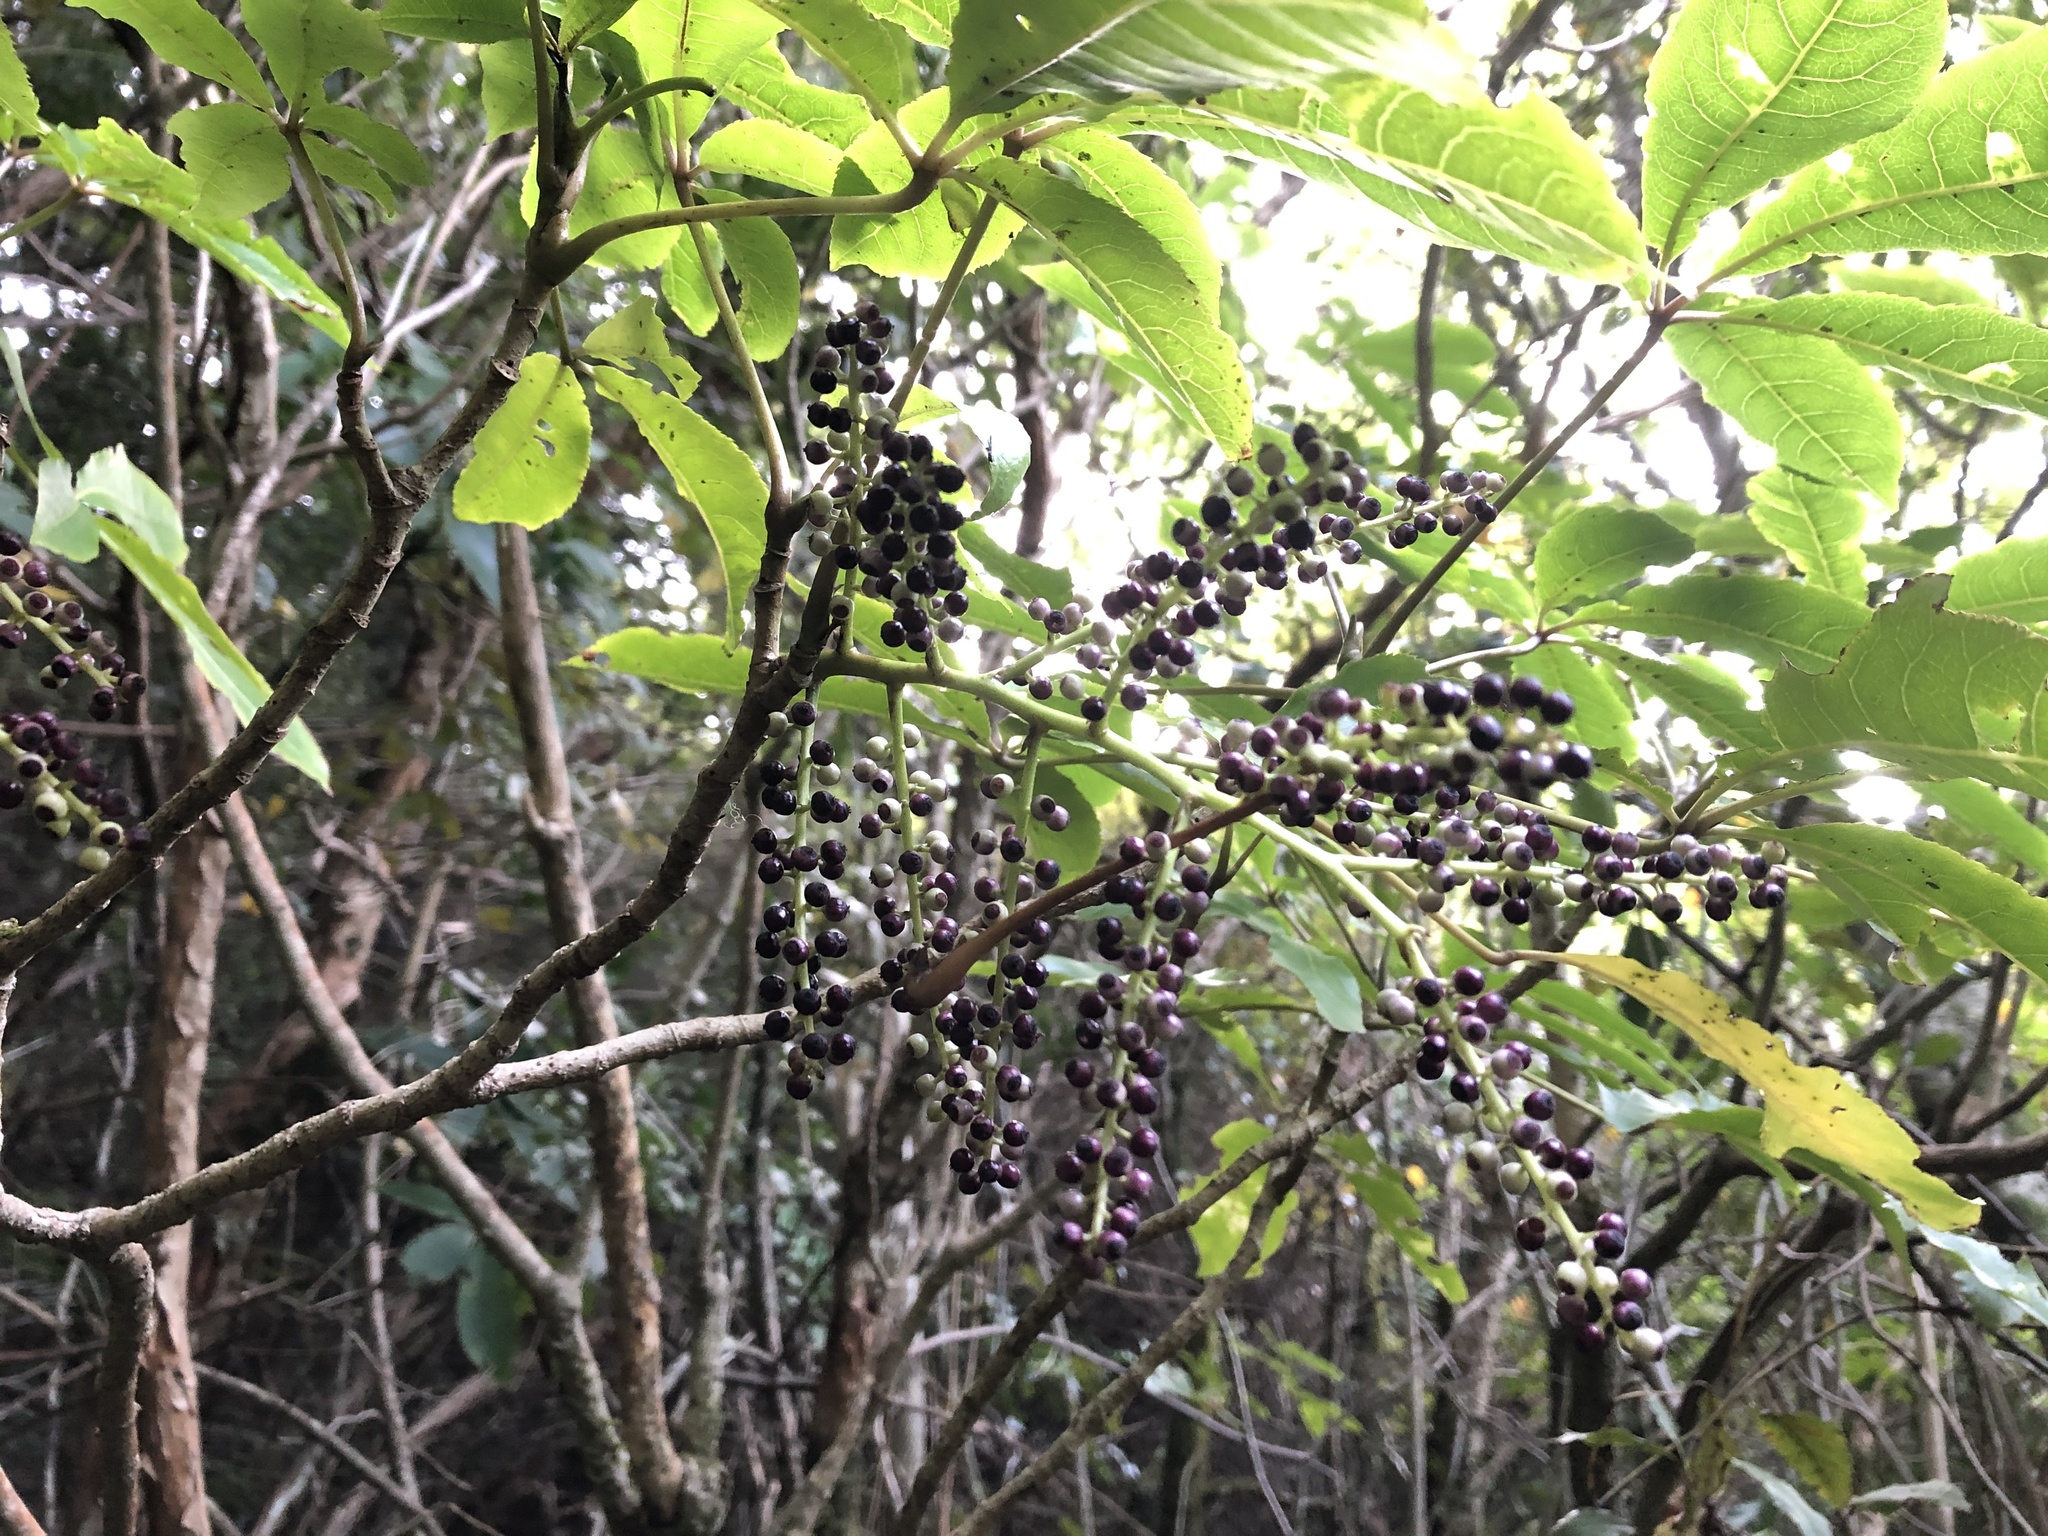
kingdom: Plantae
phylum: Tracheophyta
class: Magnoliopsida
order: Apiales
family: Araliaceae
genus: Schefflera
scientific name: Schefflera digitata
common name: Pate
